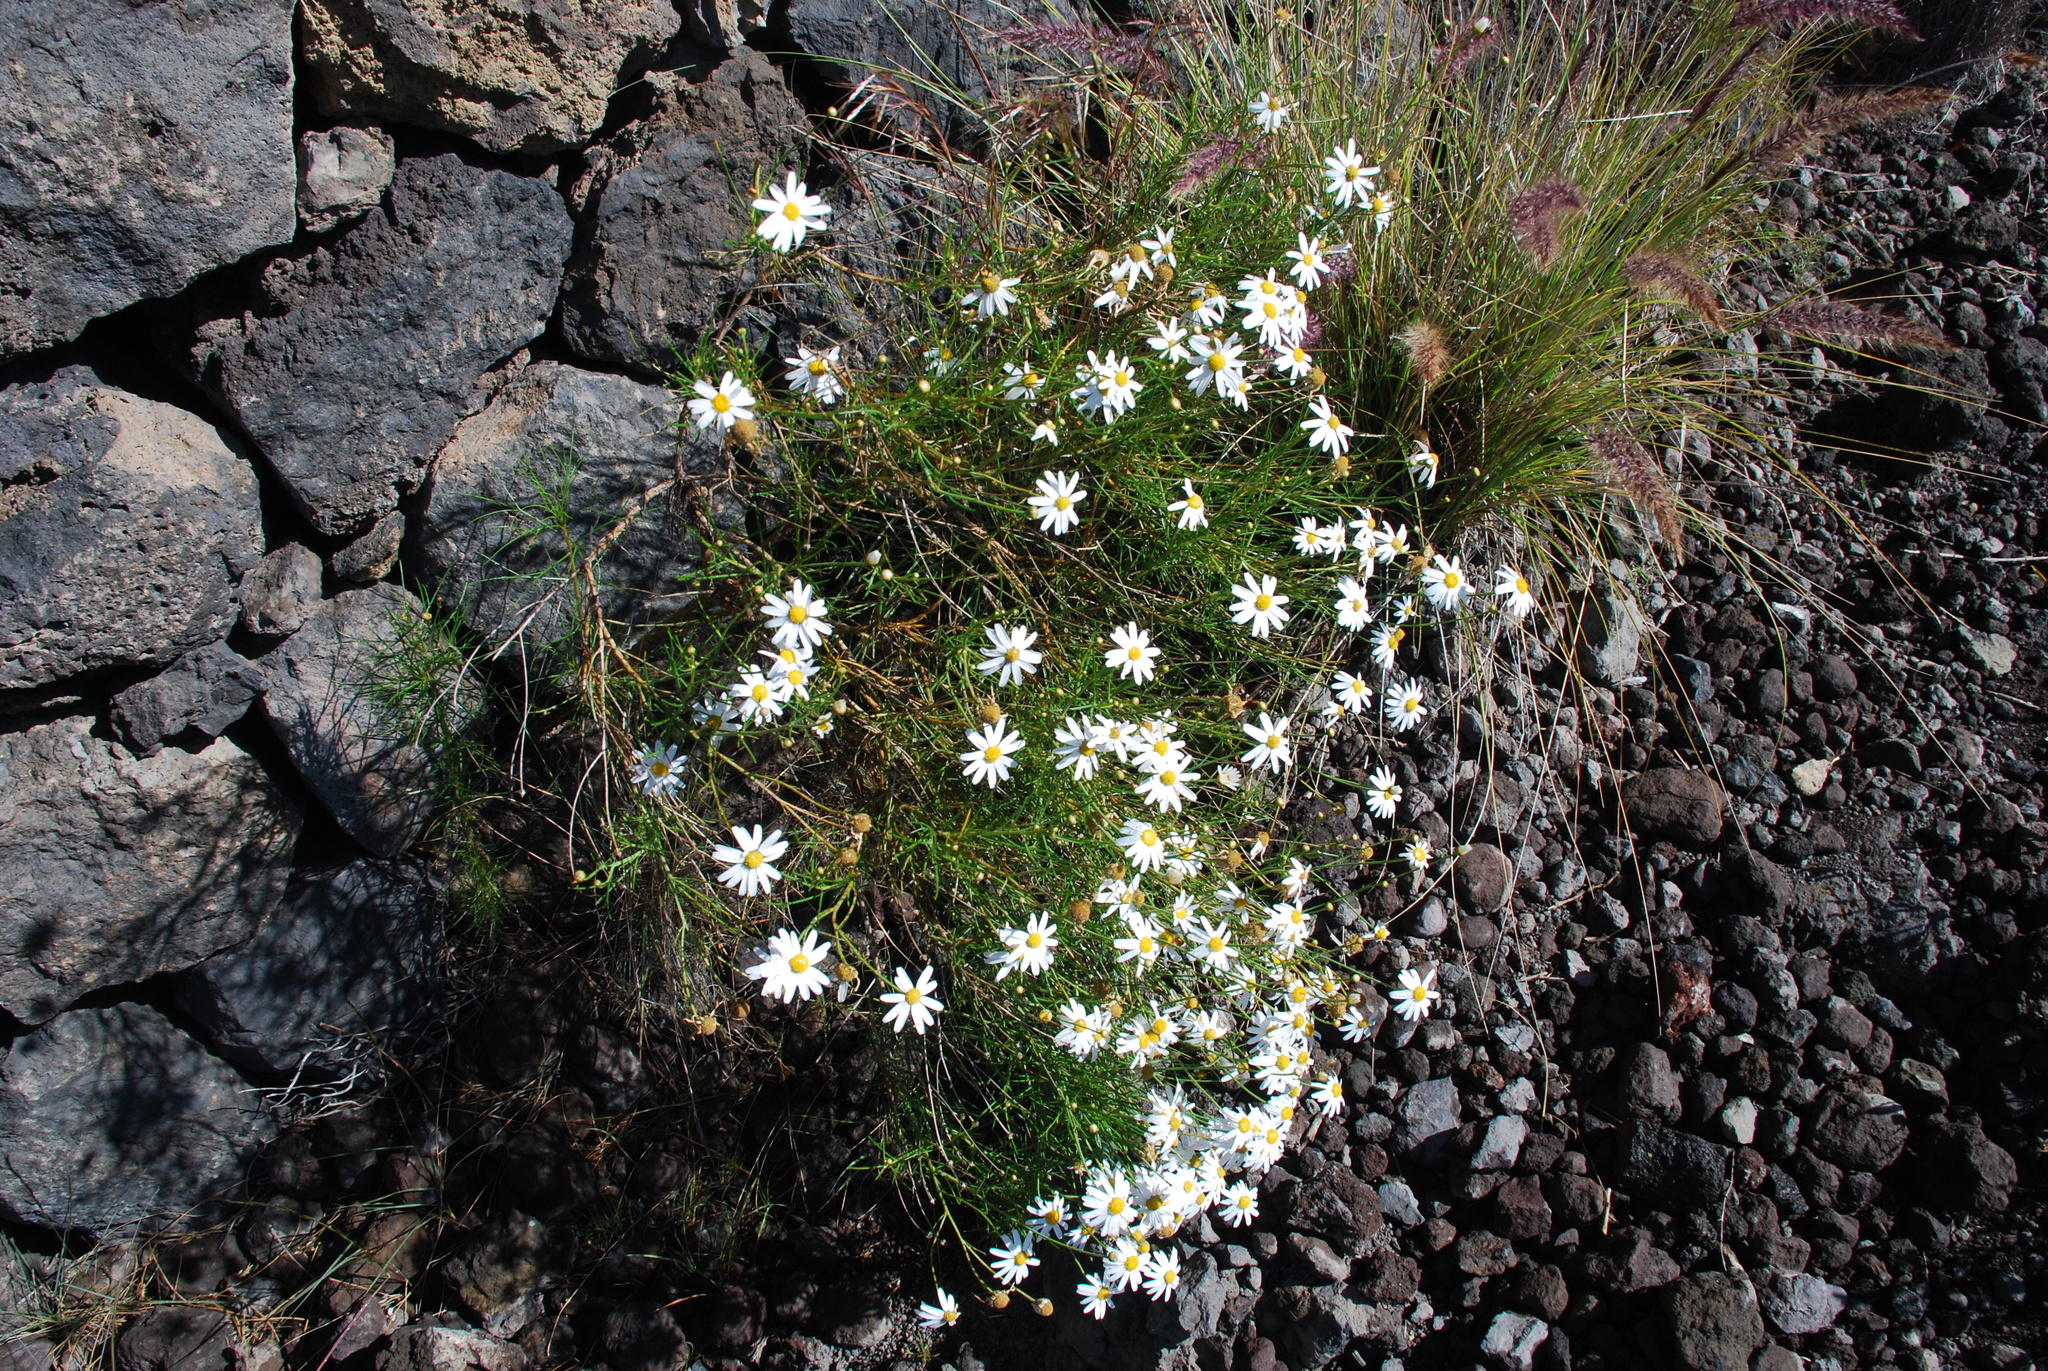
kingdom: Plantae
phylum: Tracheophyta
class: Magnoliopsida
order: Asterales
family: Asteraceae
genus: Argyranthemum
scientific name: Argyranthemum gracile
